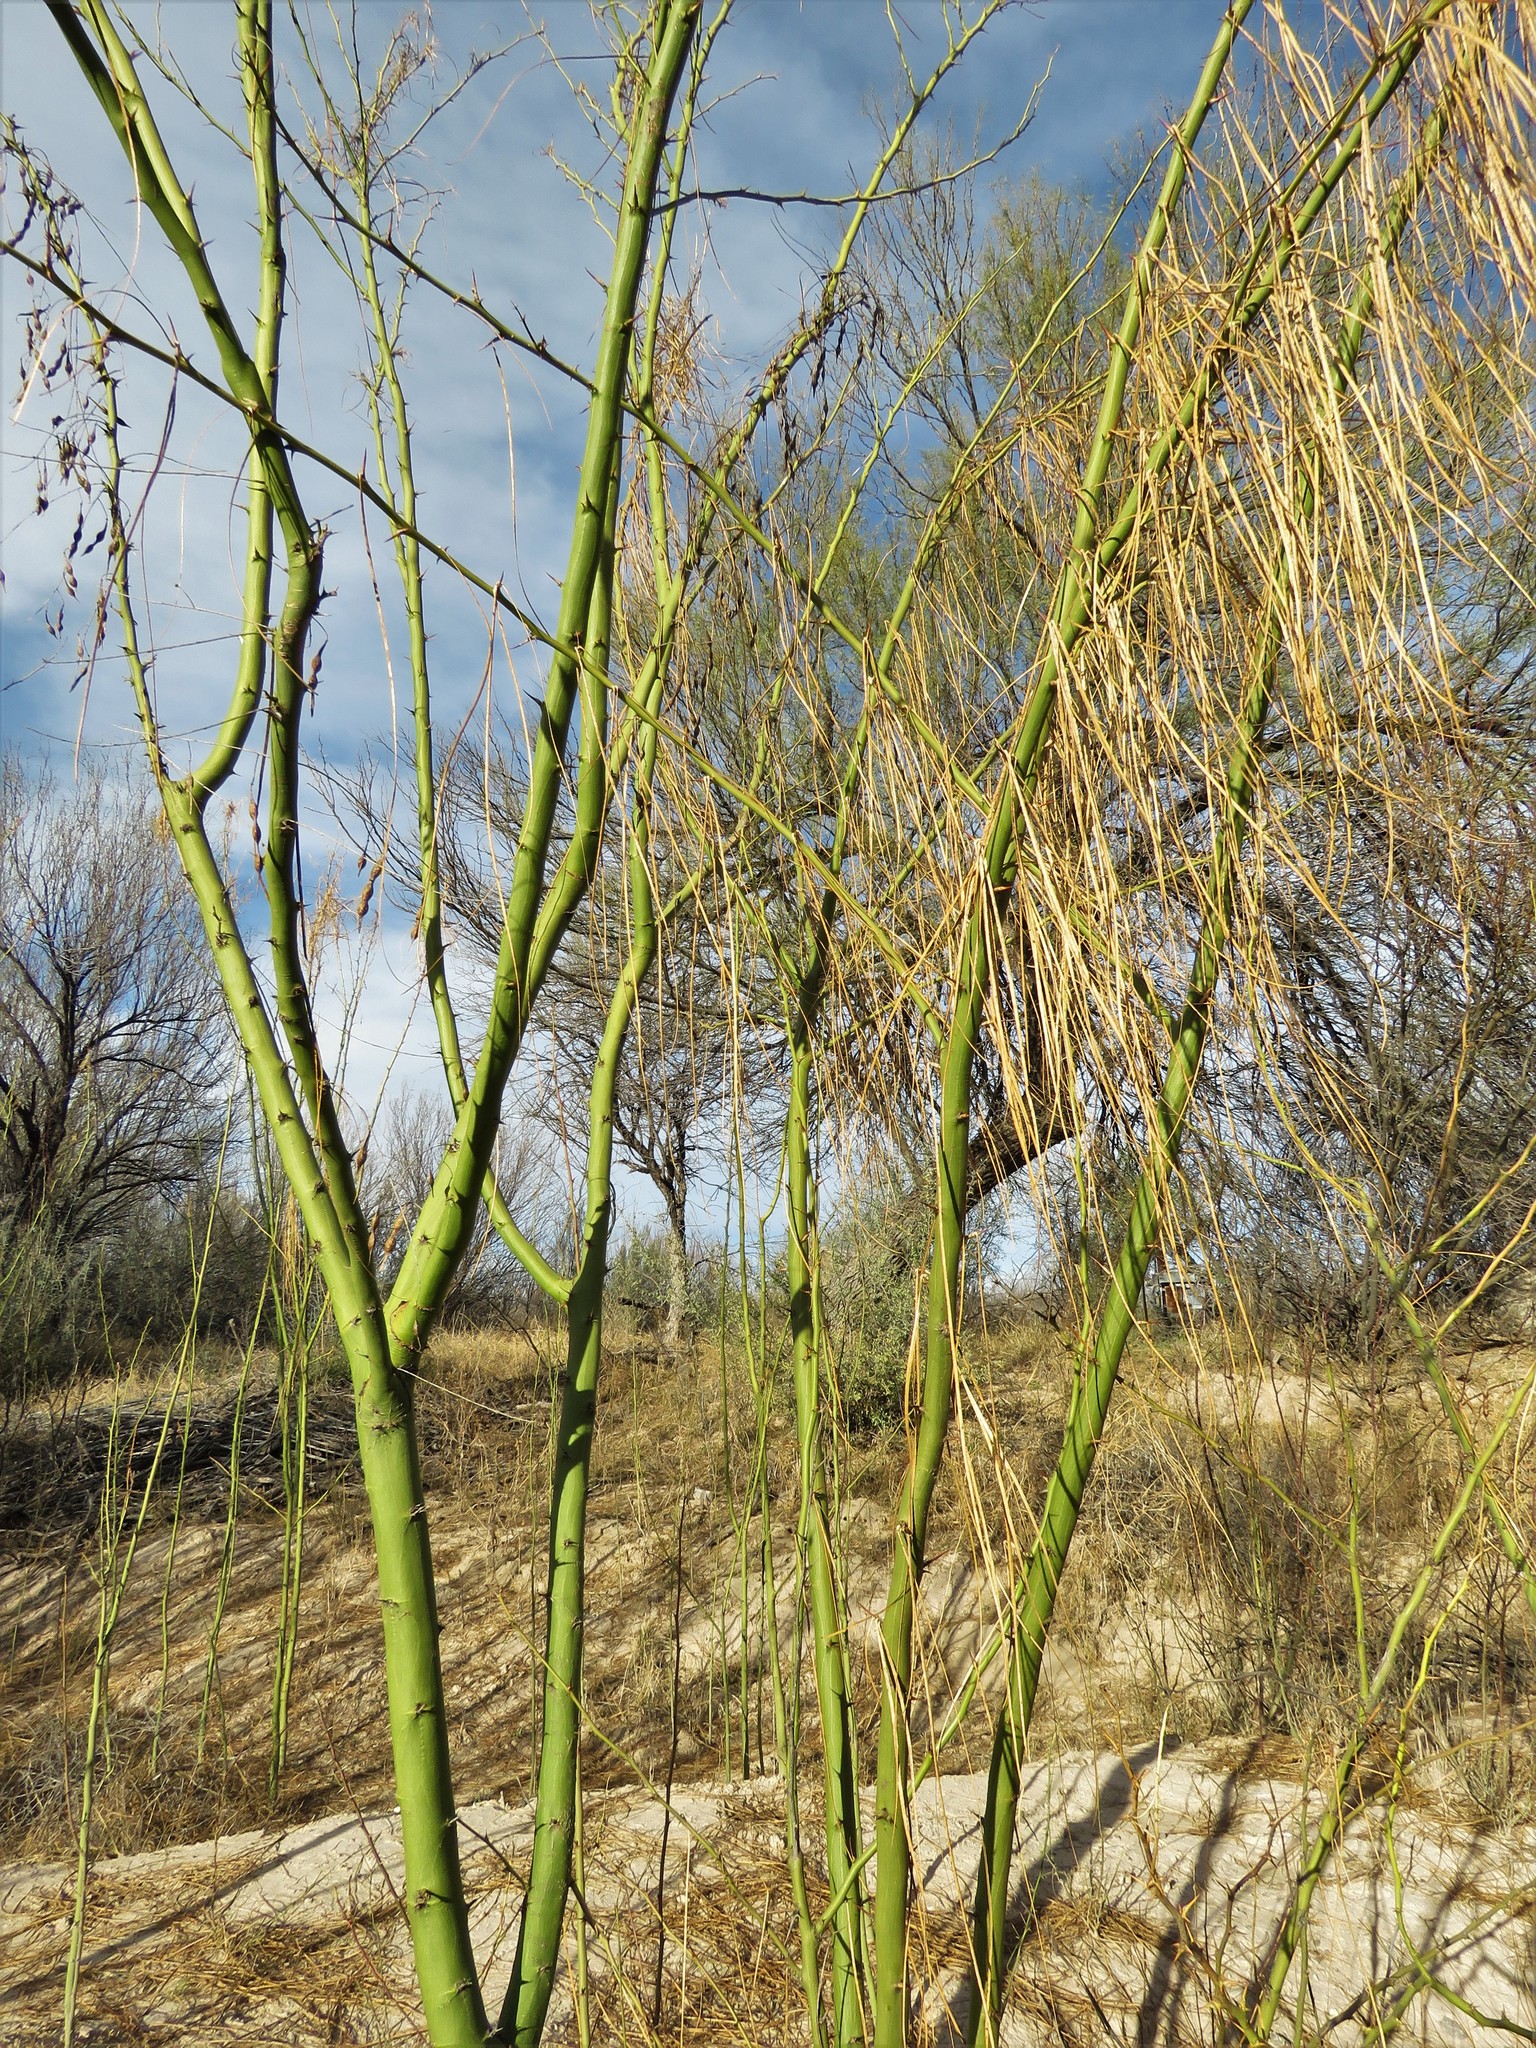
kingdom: Plantae
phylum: Tracheophyta
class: Magnoliopsida
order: Fabales
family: Fabaceae
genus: Parkinsonia
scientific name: Parkinsonia aculeata
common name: Jerusalem thorn
